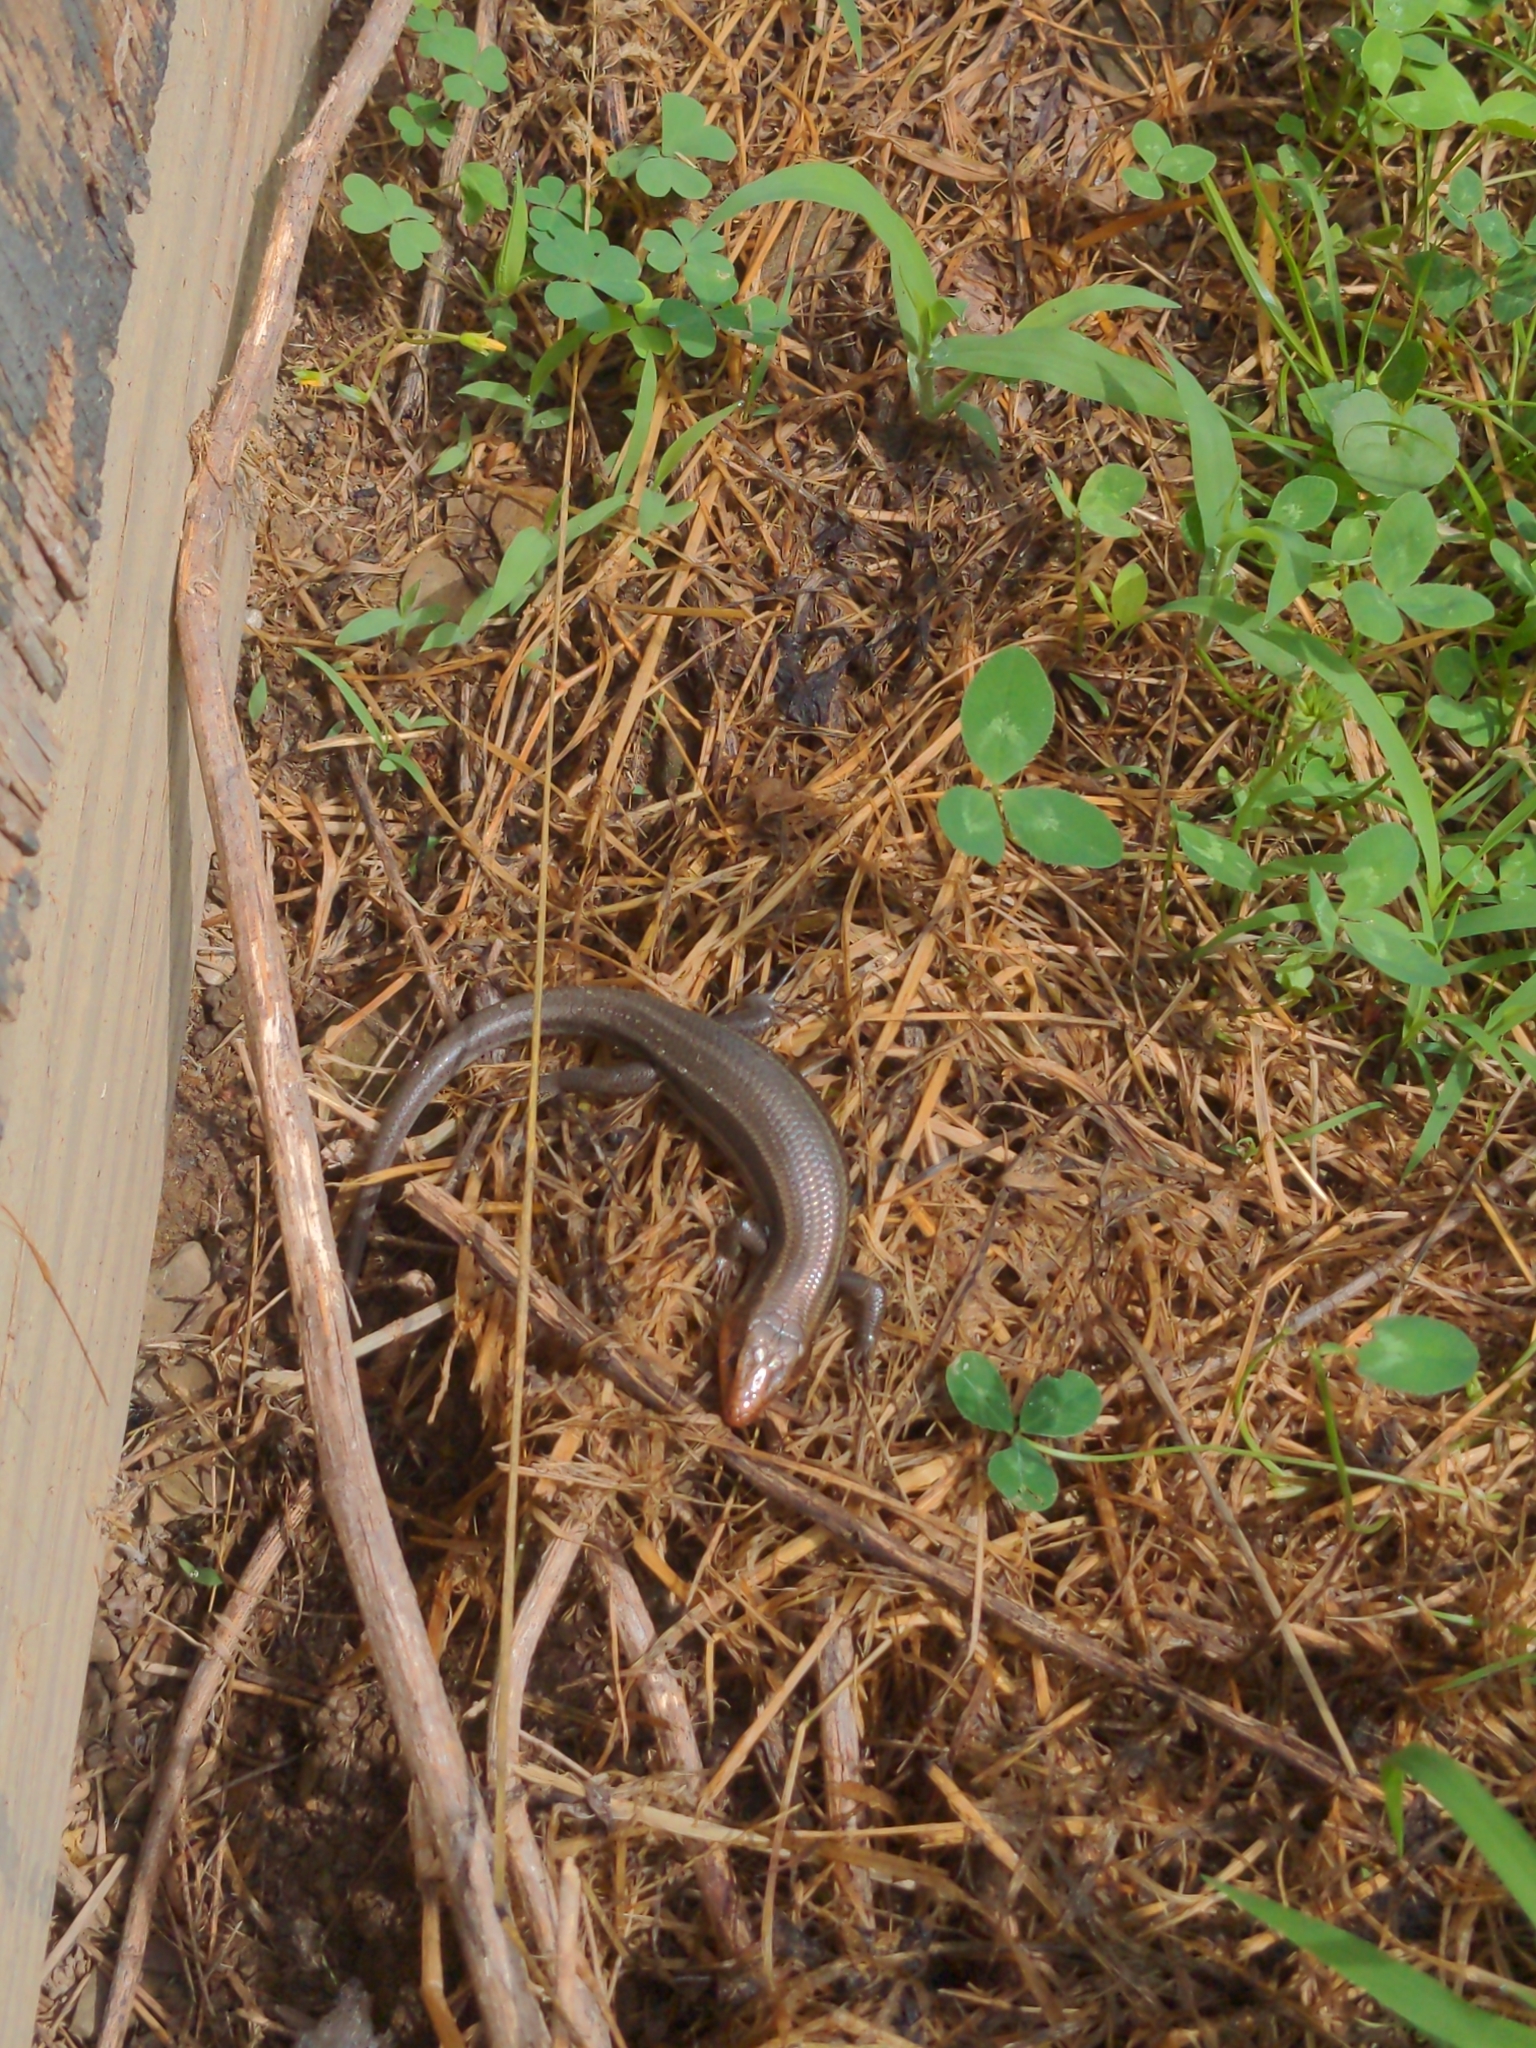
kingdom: Animalia
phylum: Chordata
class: Squamata
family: Scincidae
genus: Plestiodon
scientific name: Plestiodon laticeps
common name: Broadhead skink
